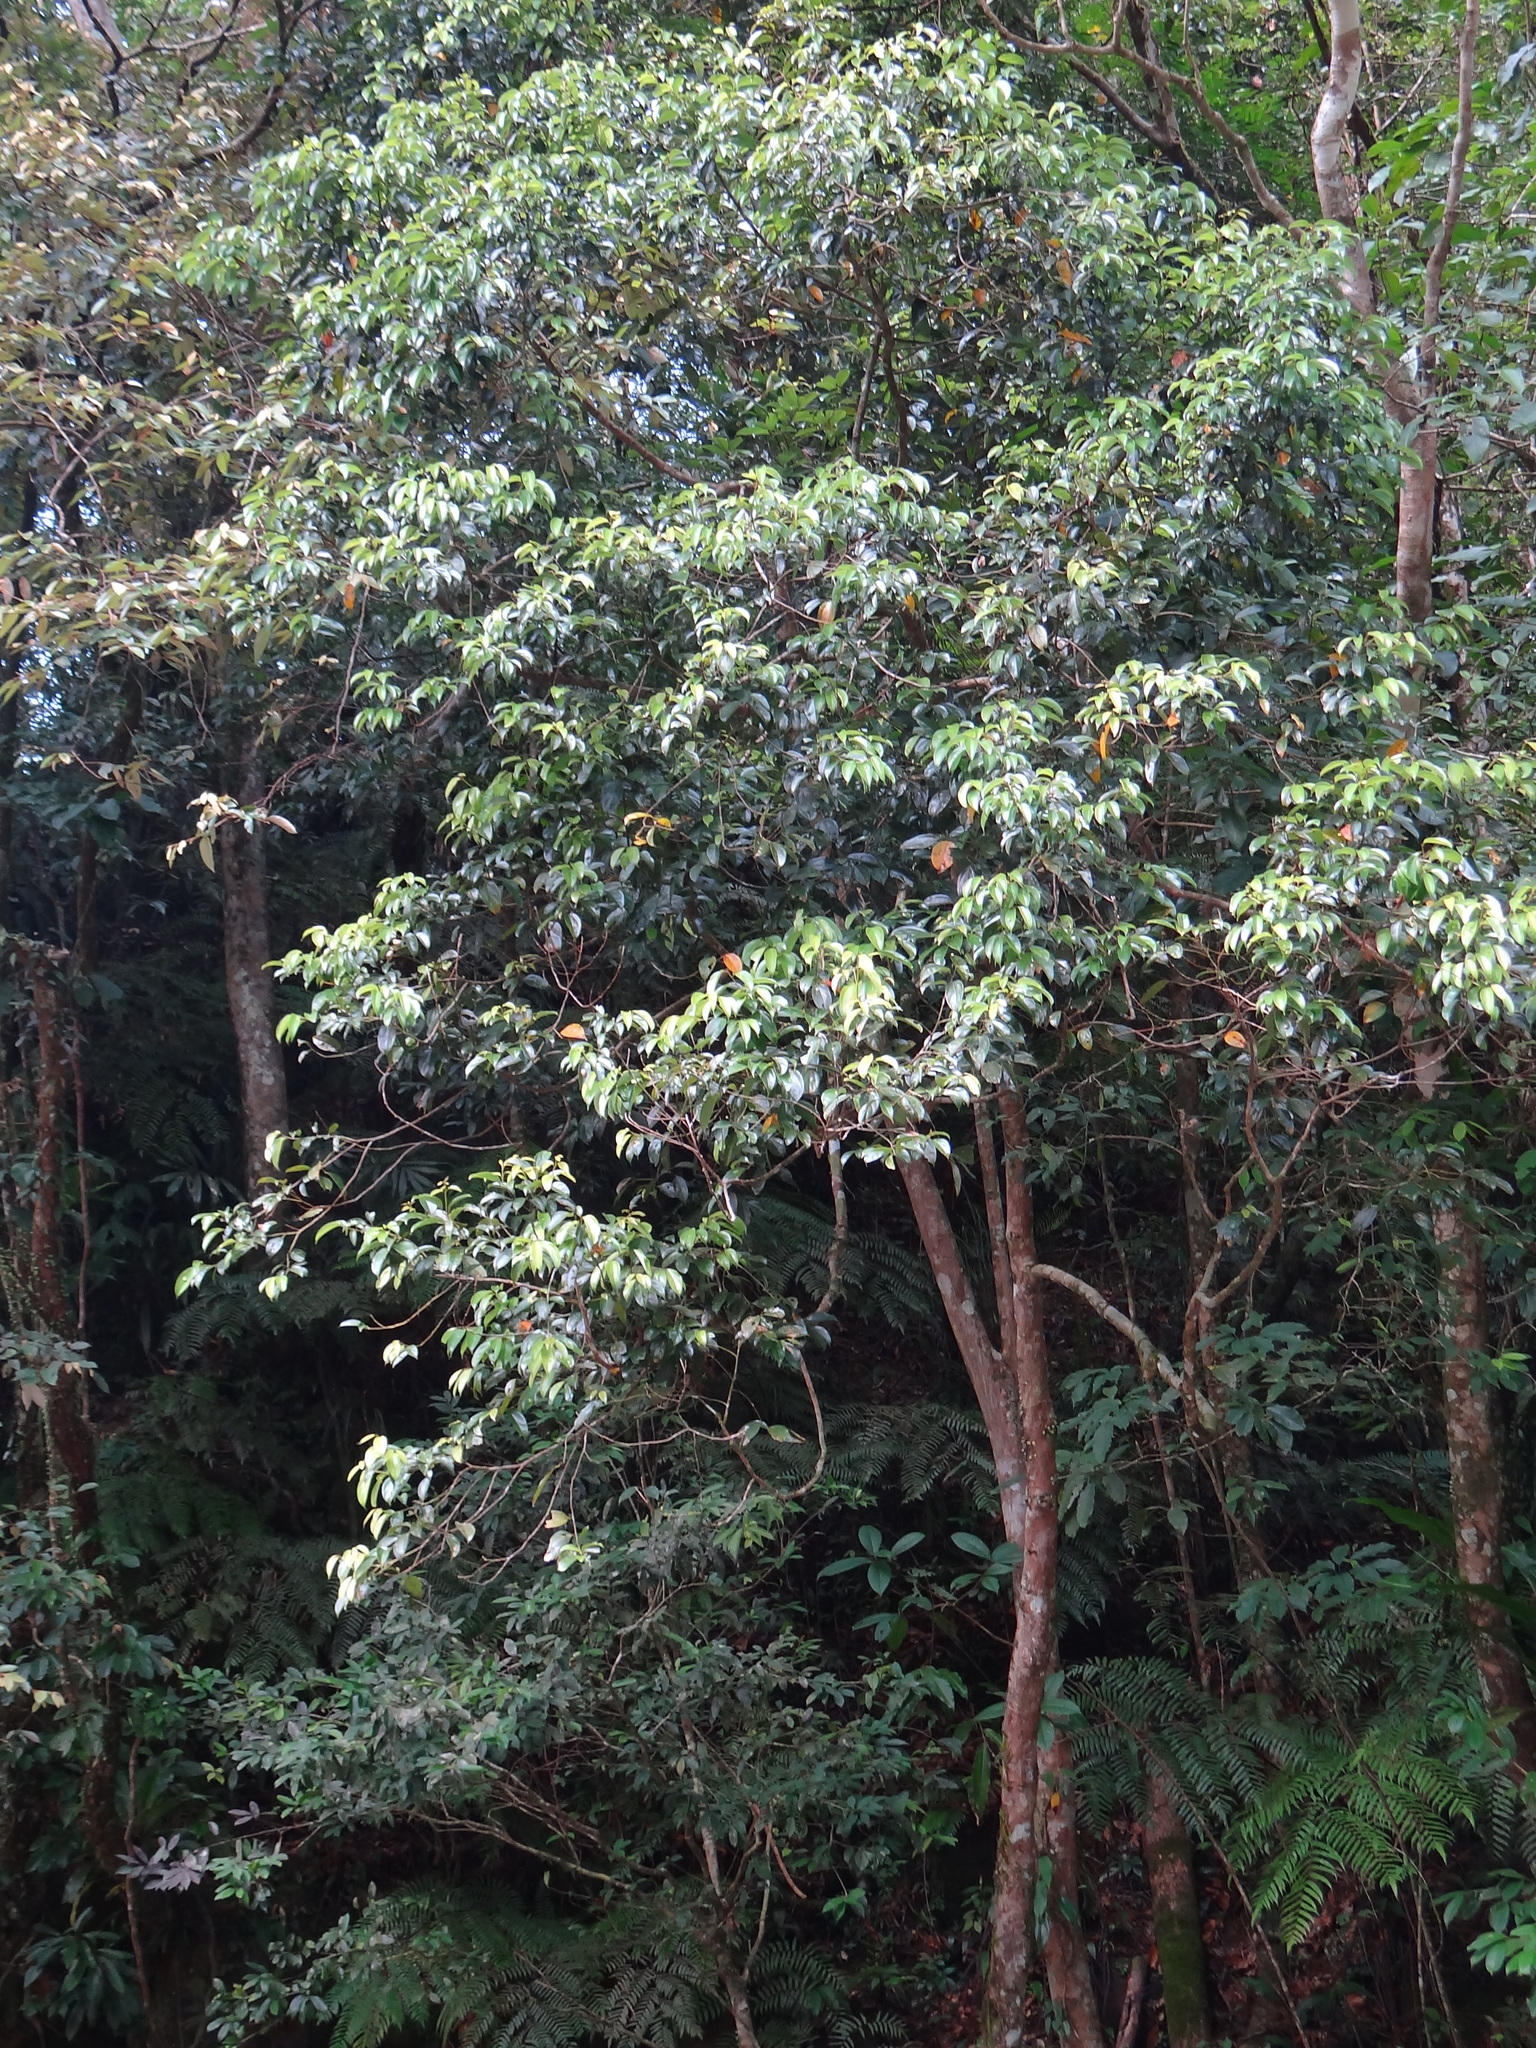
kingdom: Plantae
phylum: Tracheophyta
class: Magnoliopsida
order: Laurales
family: Lauraceae
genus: Cryptocarya
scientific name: Cryptocarya chinensis
